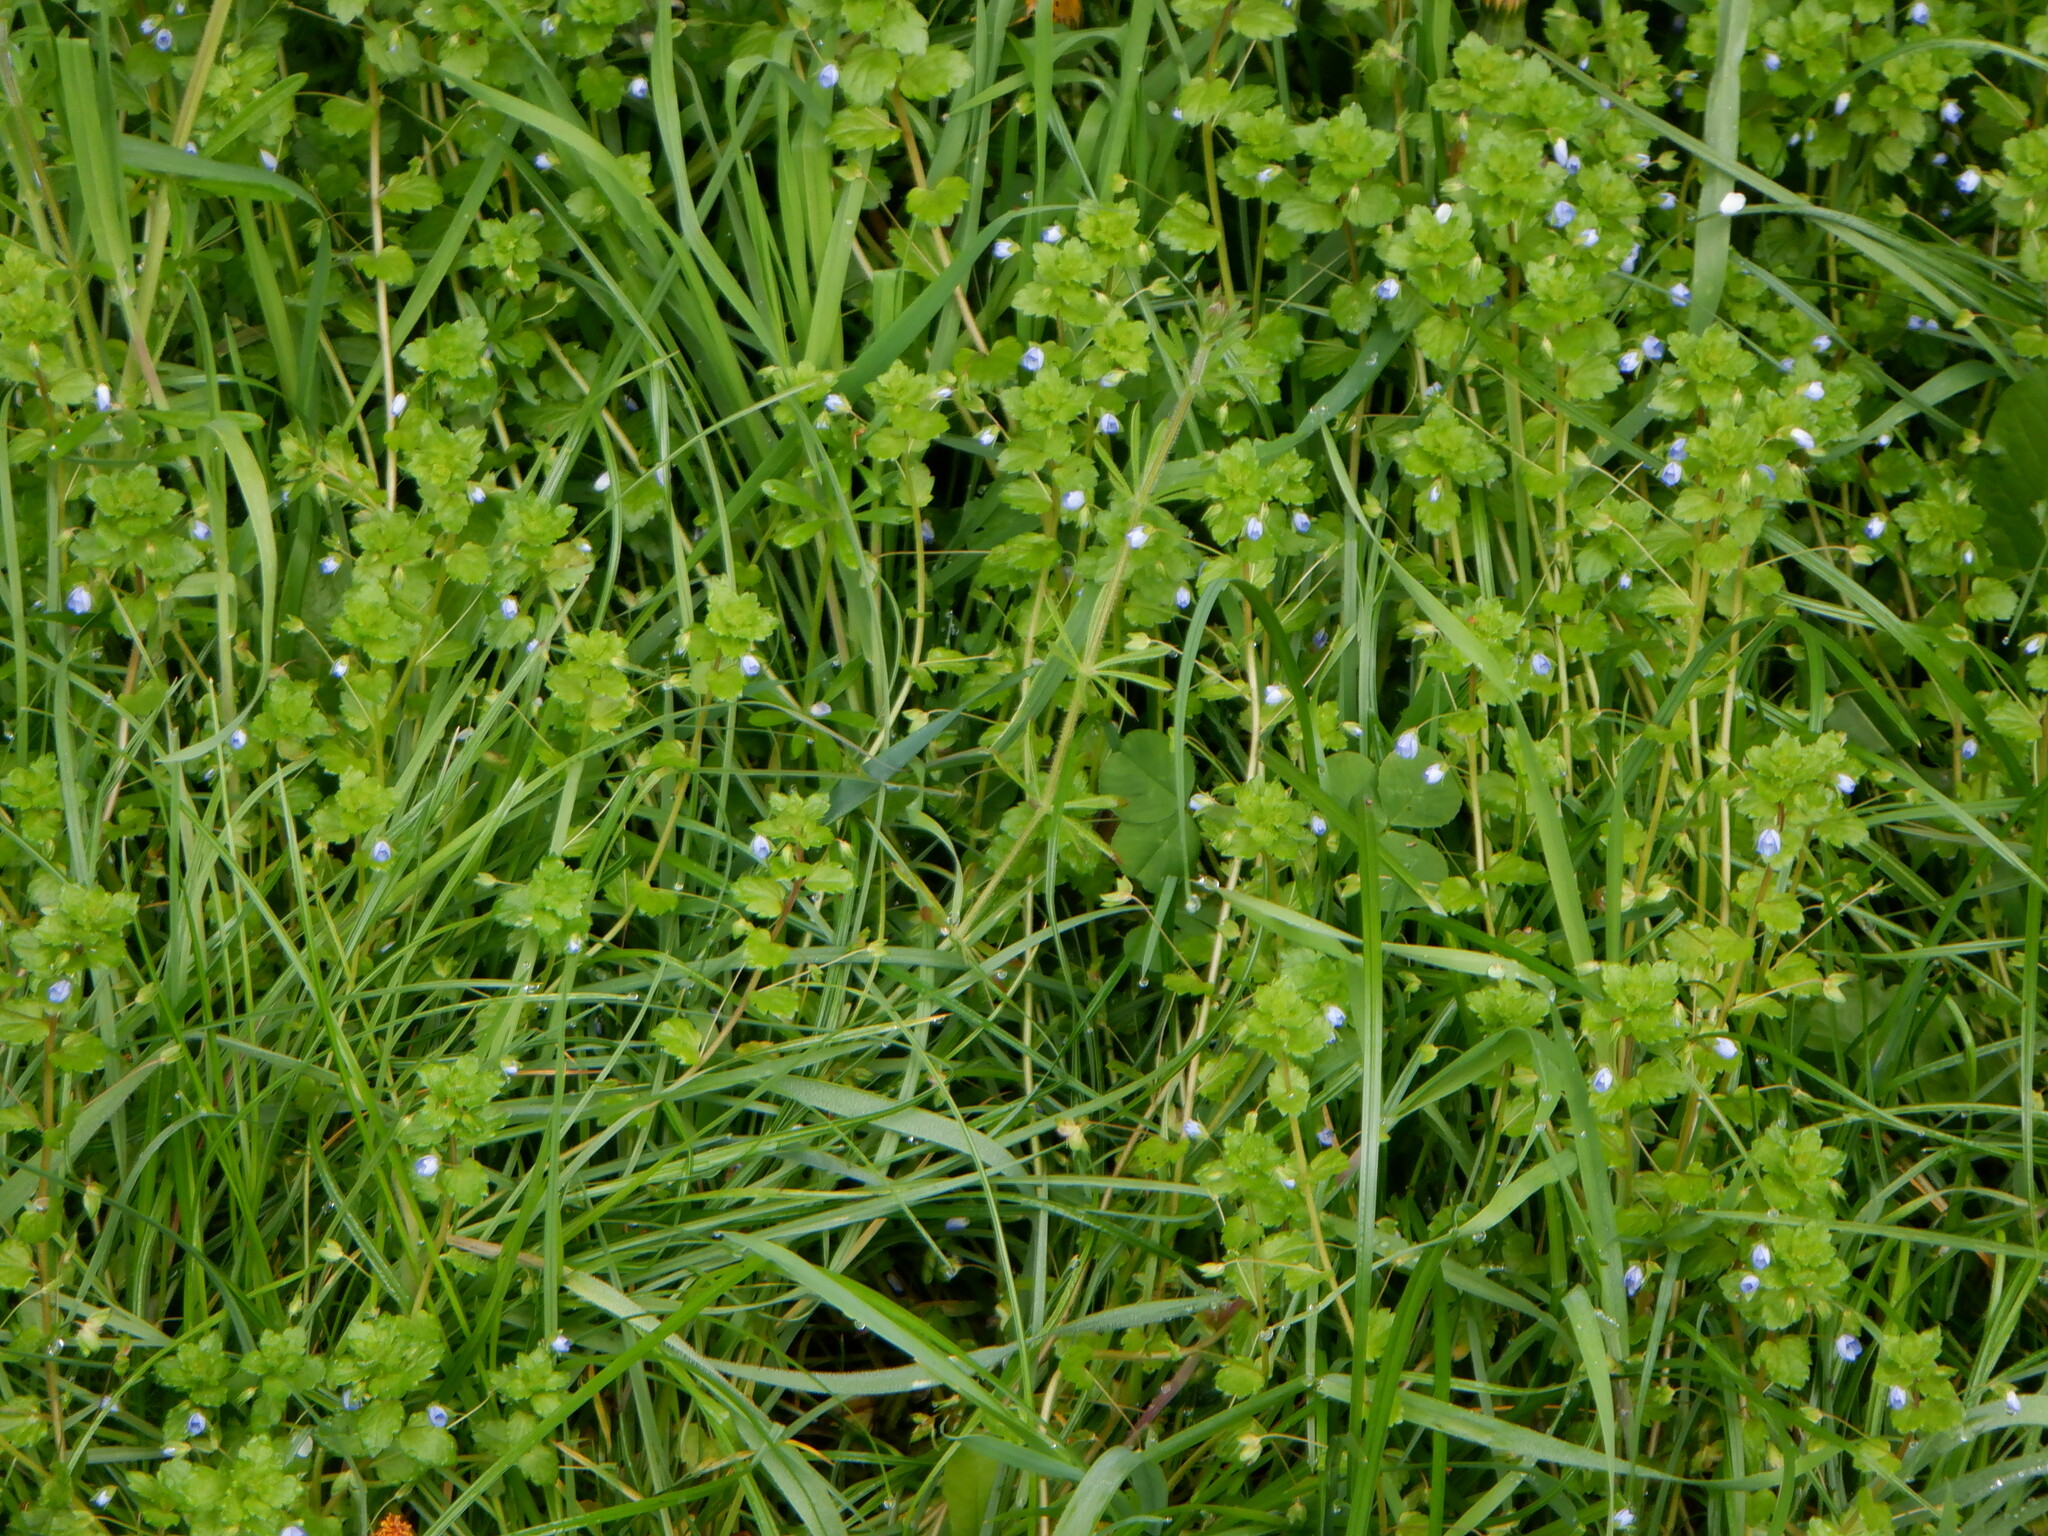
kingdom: Plantae
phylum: Tracheophyta
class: Magnoliopsida
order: Lamiales
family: Plantaginaceae
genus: Veronica
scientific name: Veronica persica
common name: Common field-speedwell
